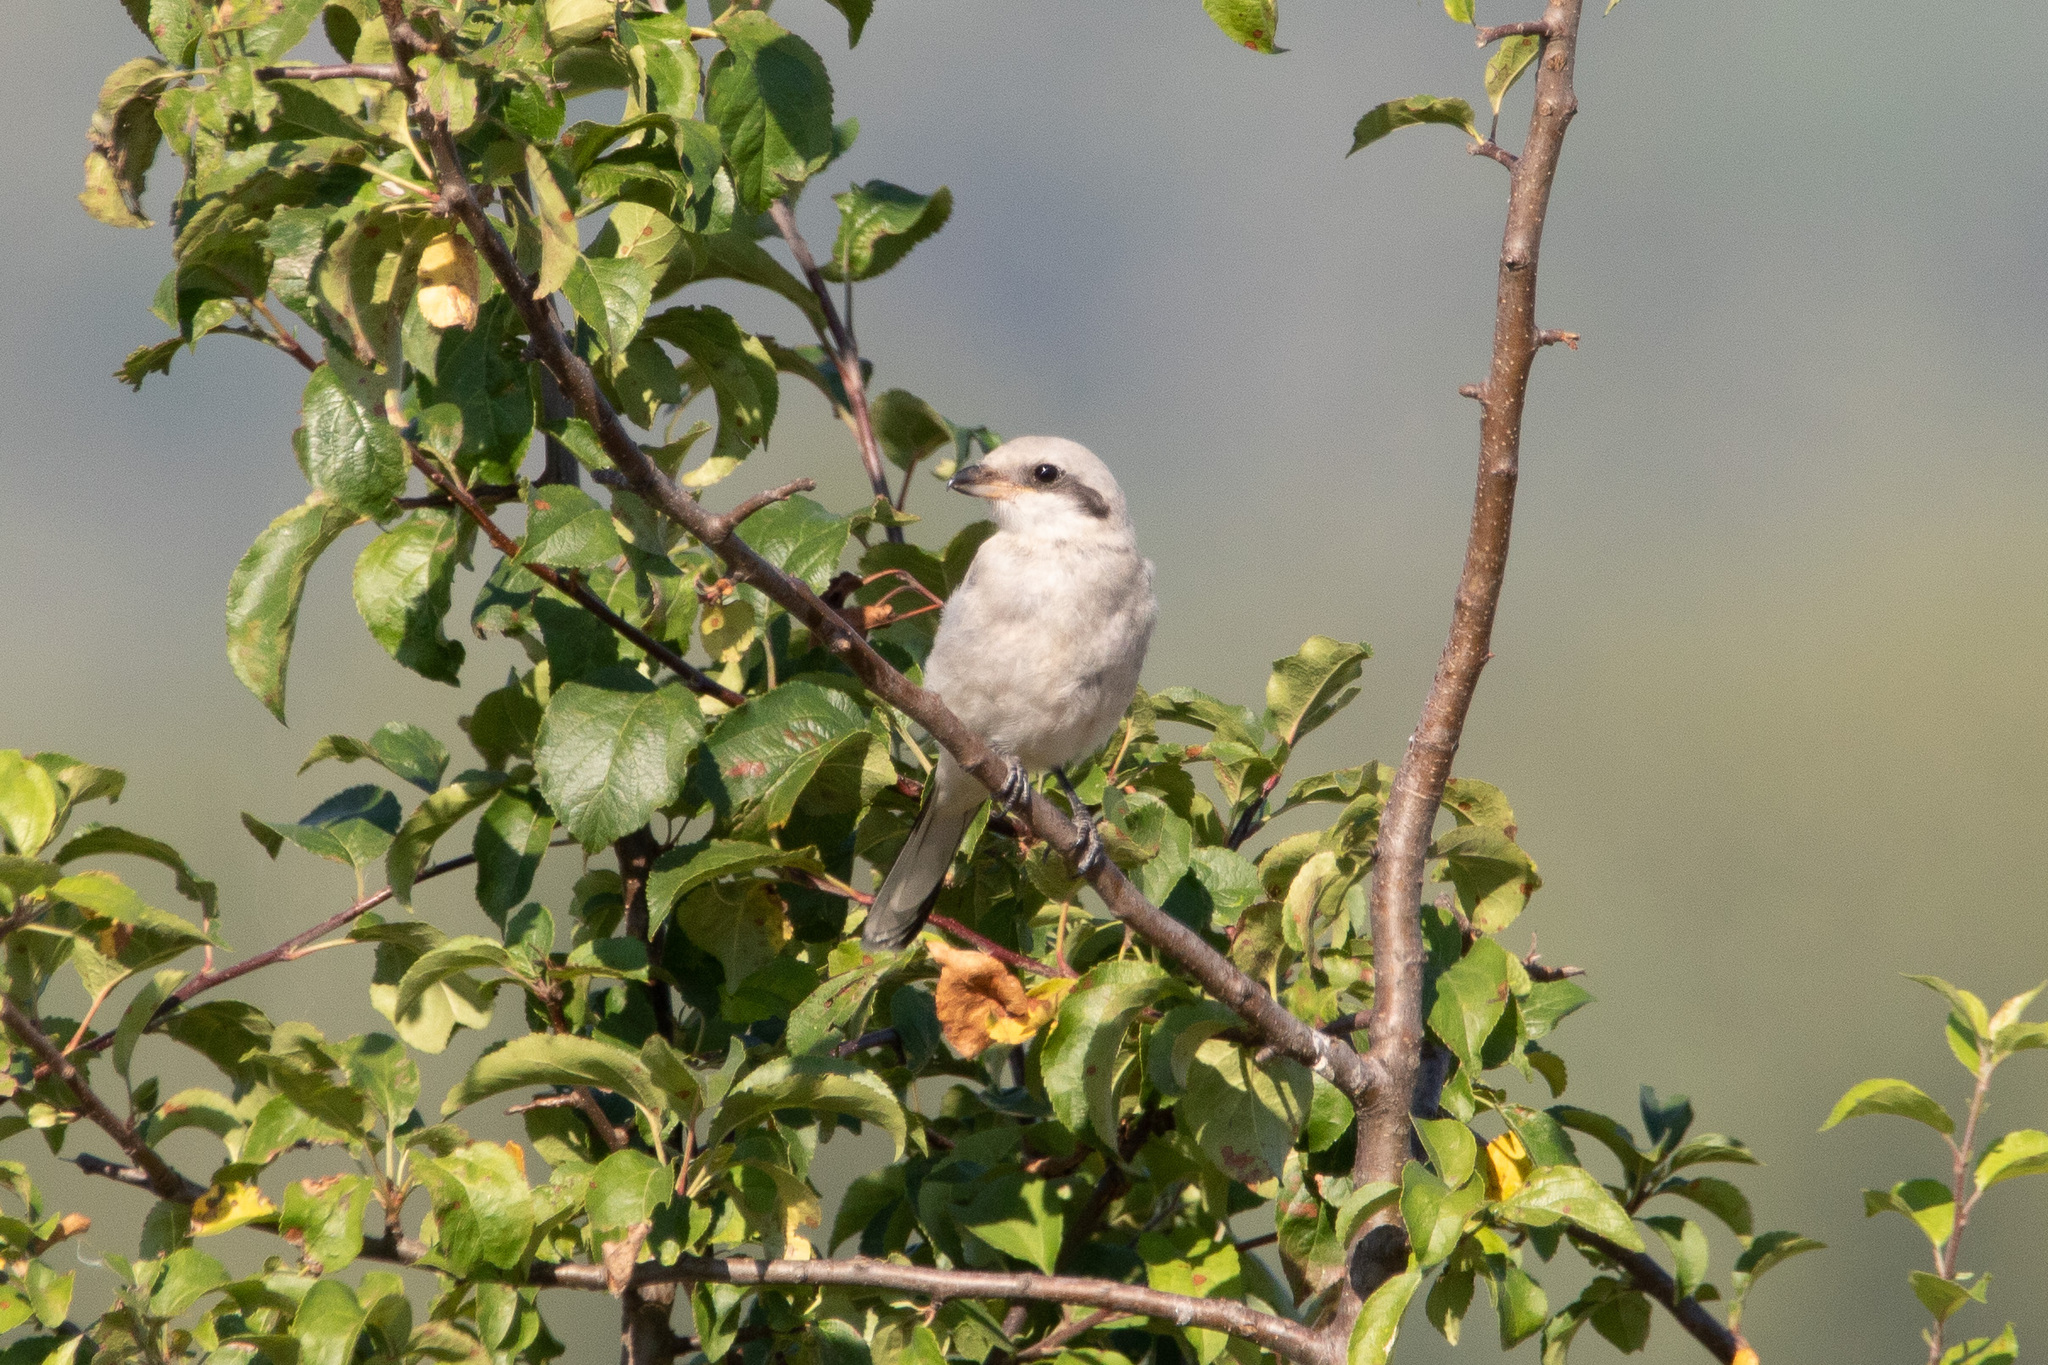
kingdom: Animalia
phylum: Chordata
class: Aves
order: Passeriformes
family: Laniidae
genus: Lanius
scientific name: Lanius excubitor
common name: Great grey shrike
